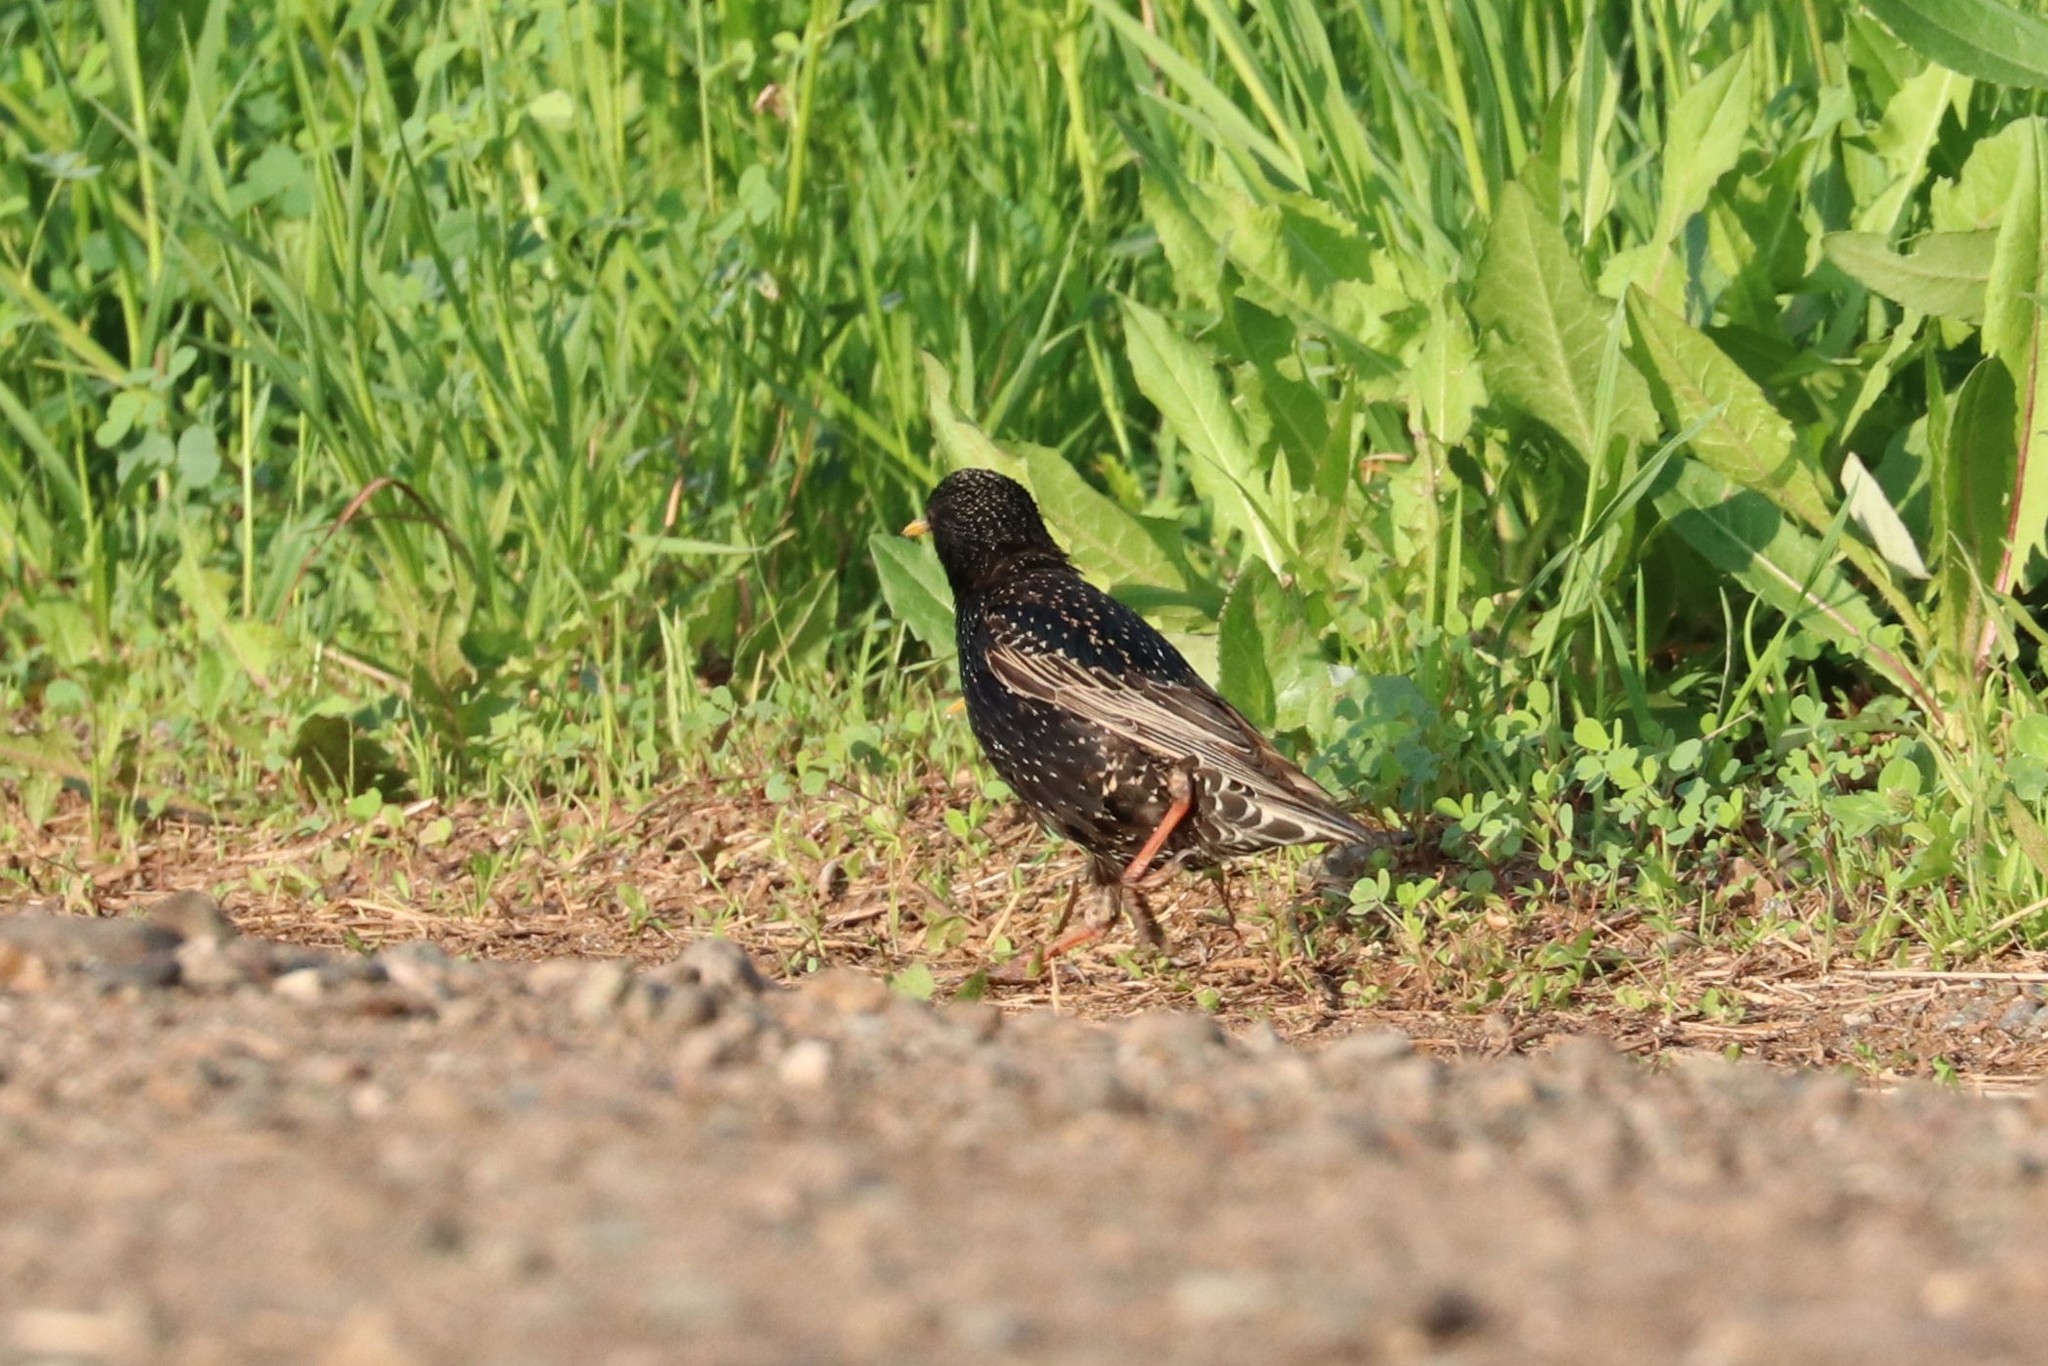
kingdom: Animalia
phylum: Chordata
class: Aves
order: Passeriformes
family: Sturnidae
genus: Sturnus
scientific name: Sturnus vulgaris
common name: Common starling
